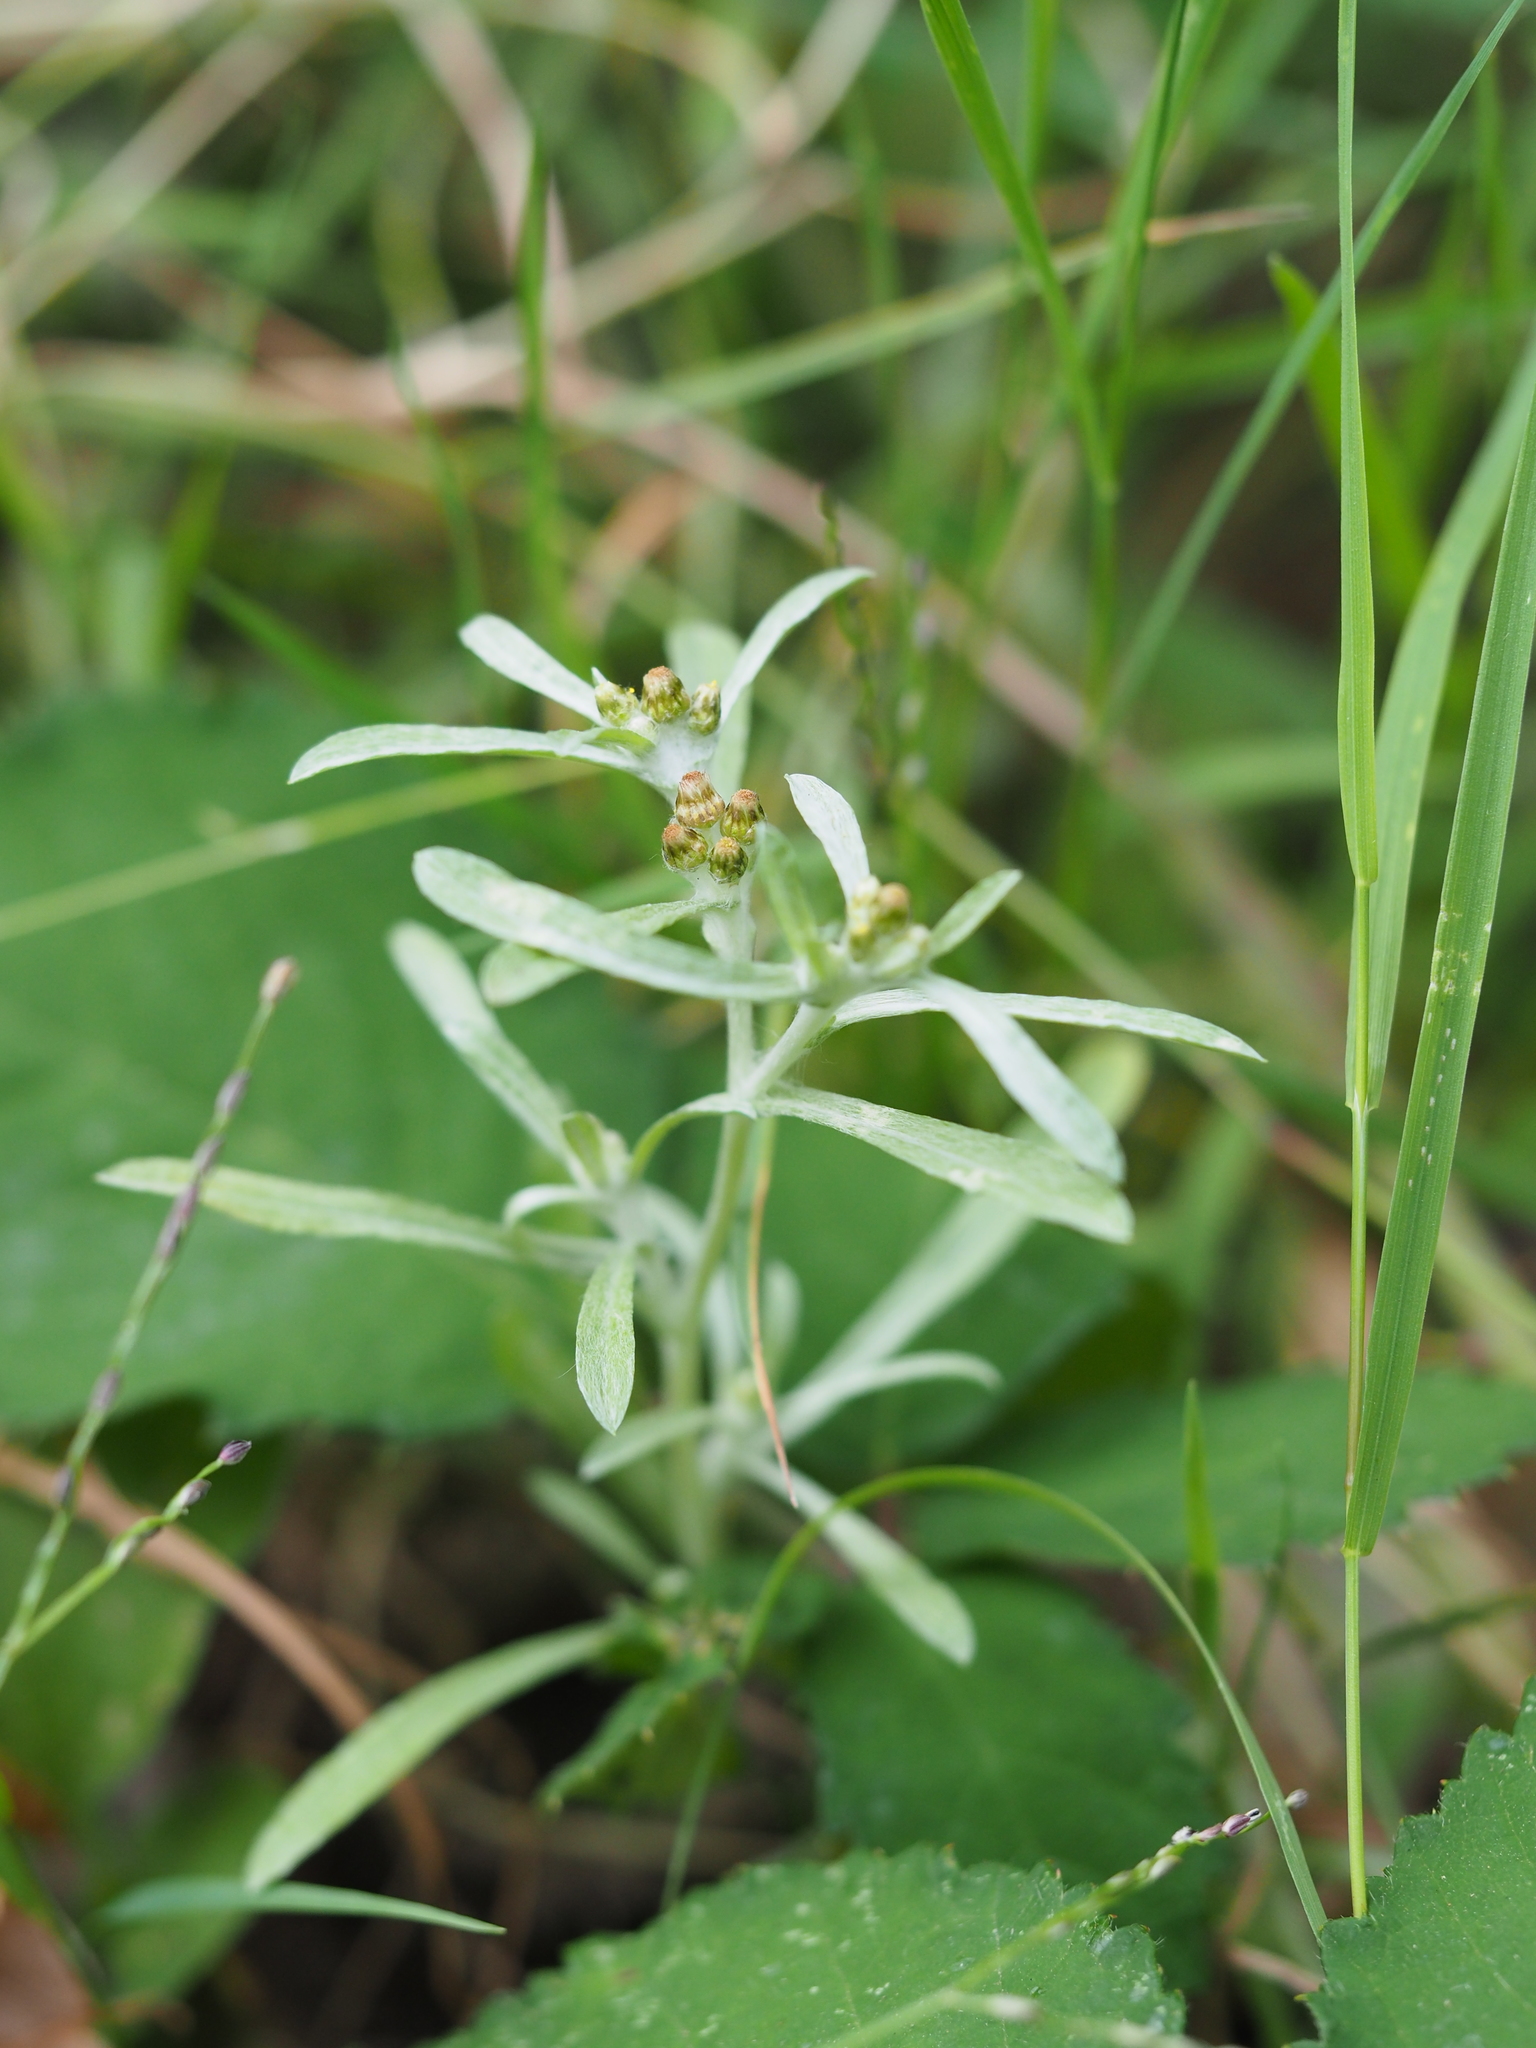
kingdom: Plantae
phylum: Tracheophyta
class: Magnoliopsida
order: Asterales
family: Asteraceae
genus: Gnaphalium
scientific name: Gnaphalium uliginosum
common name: Marsh cudweed
